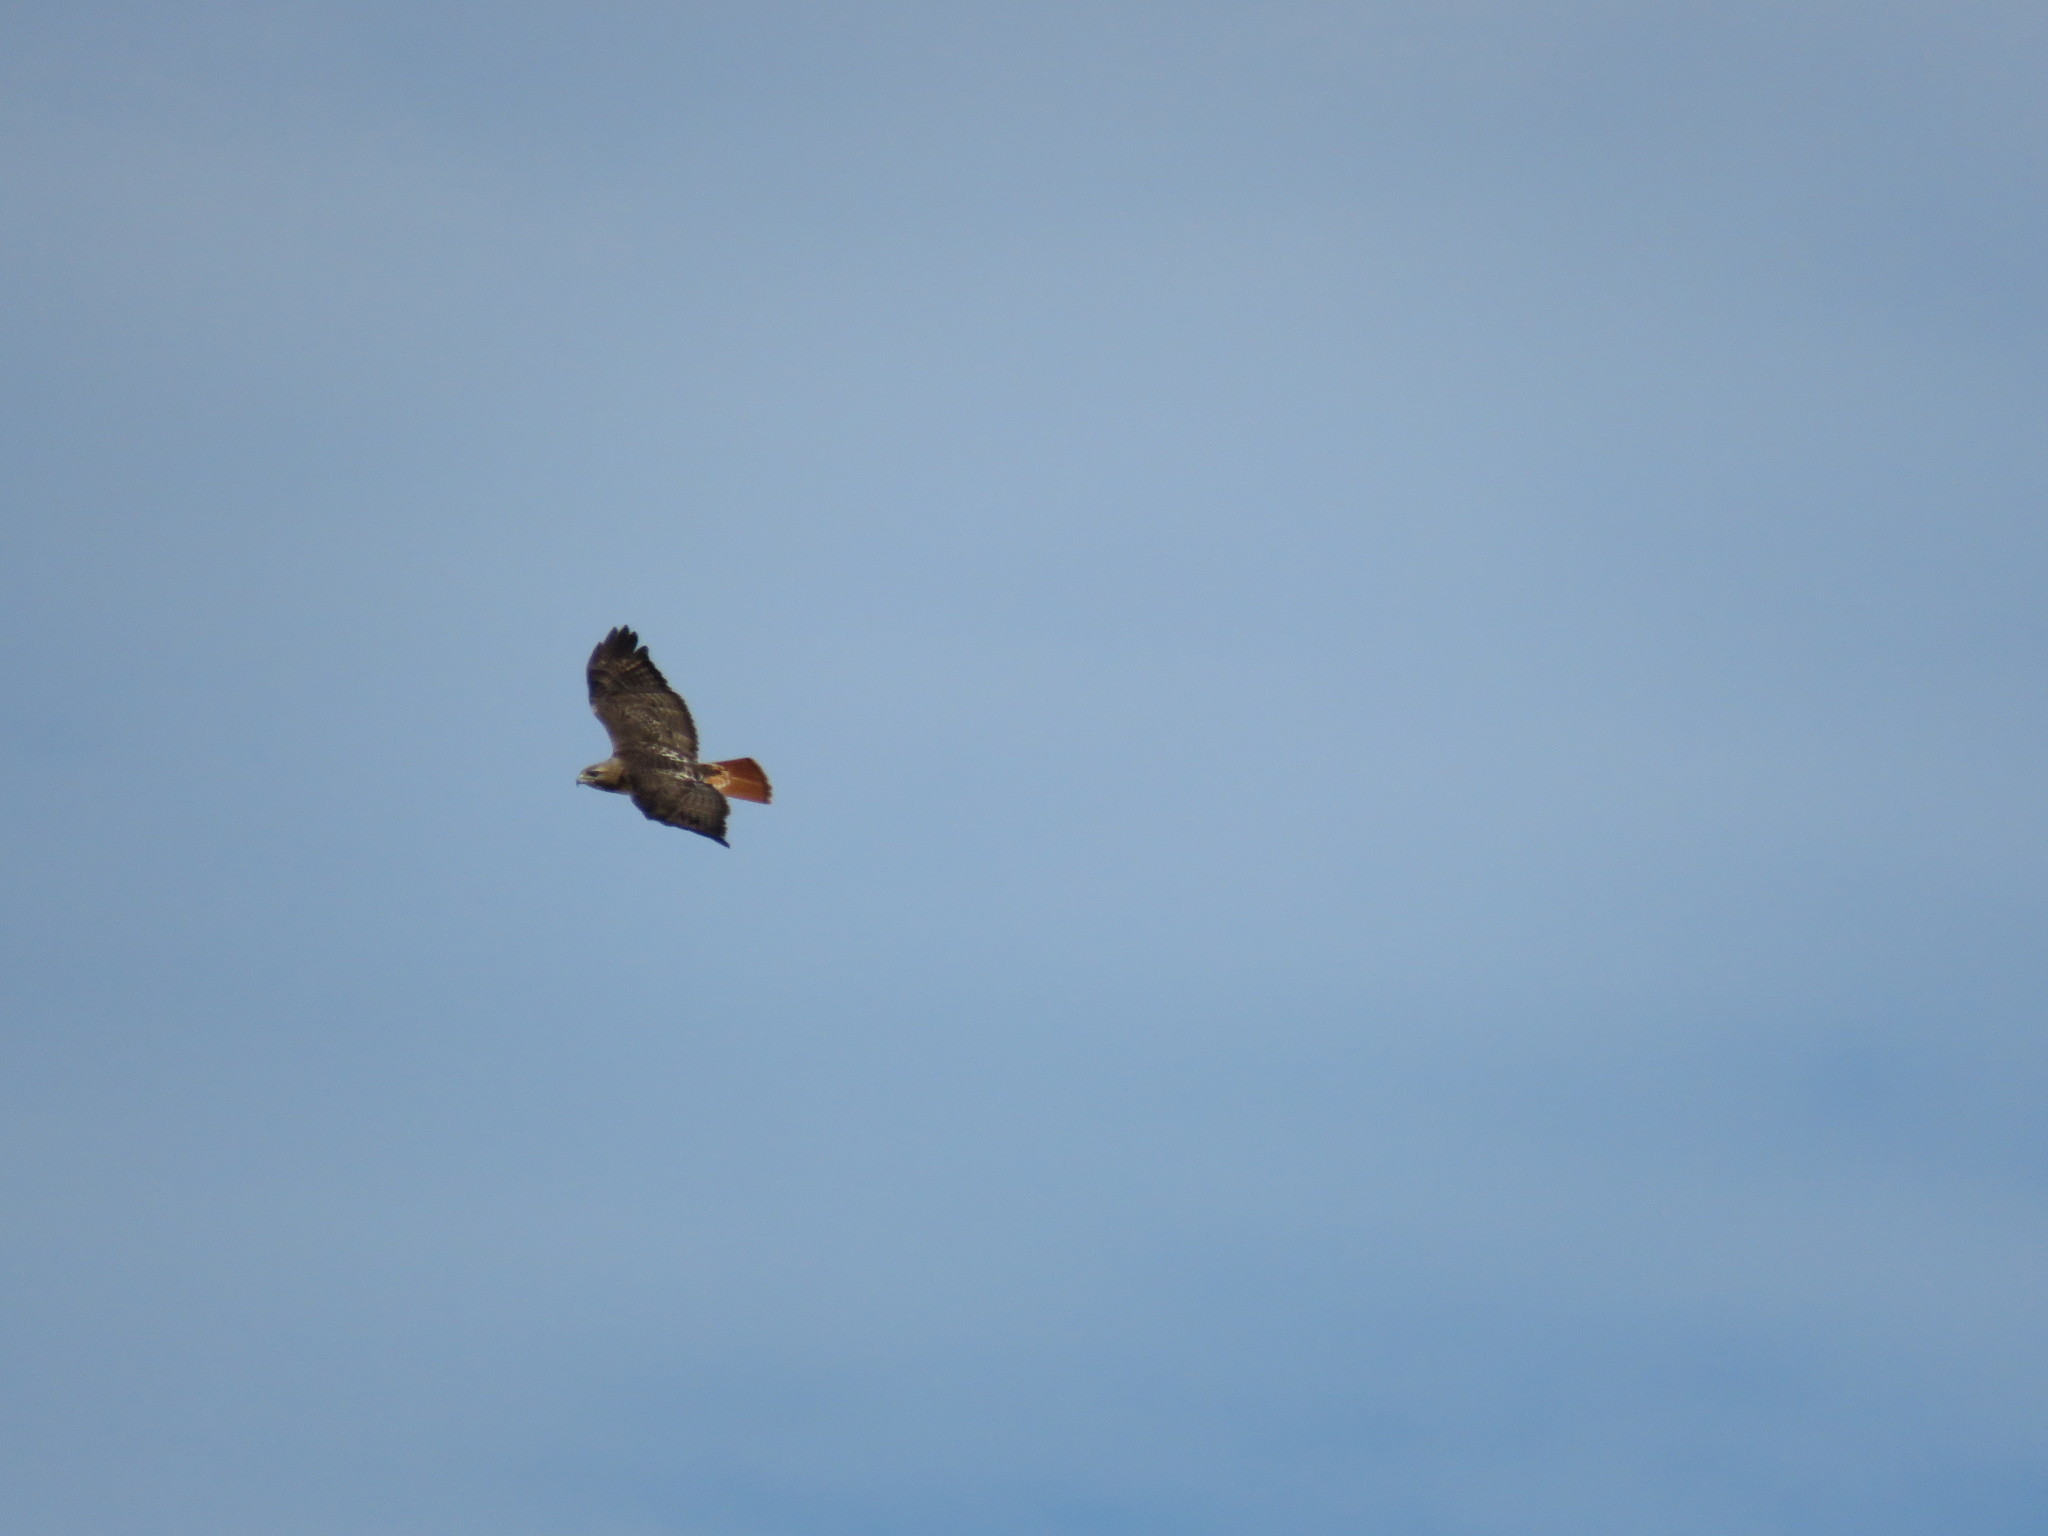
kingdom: Animalia
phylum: Chordata
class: Aves
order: Accipitriformes
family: Accipitridae
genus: Buteo
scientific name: Buteo jamaicensis
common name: Red-tailed hawk
